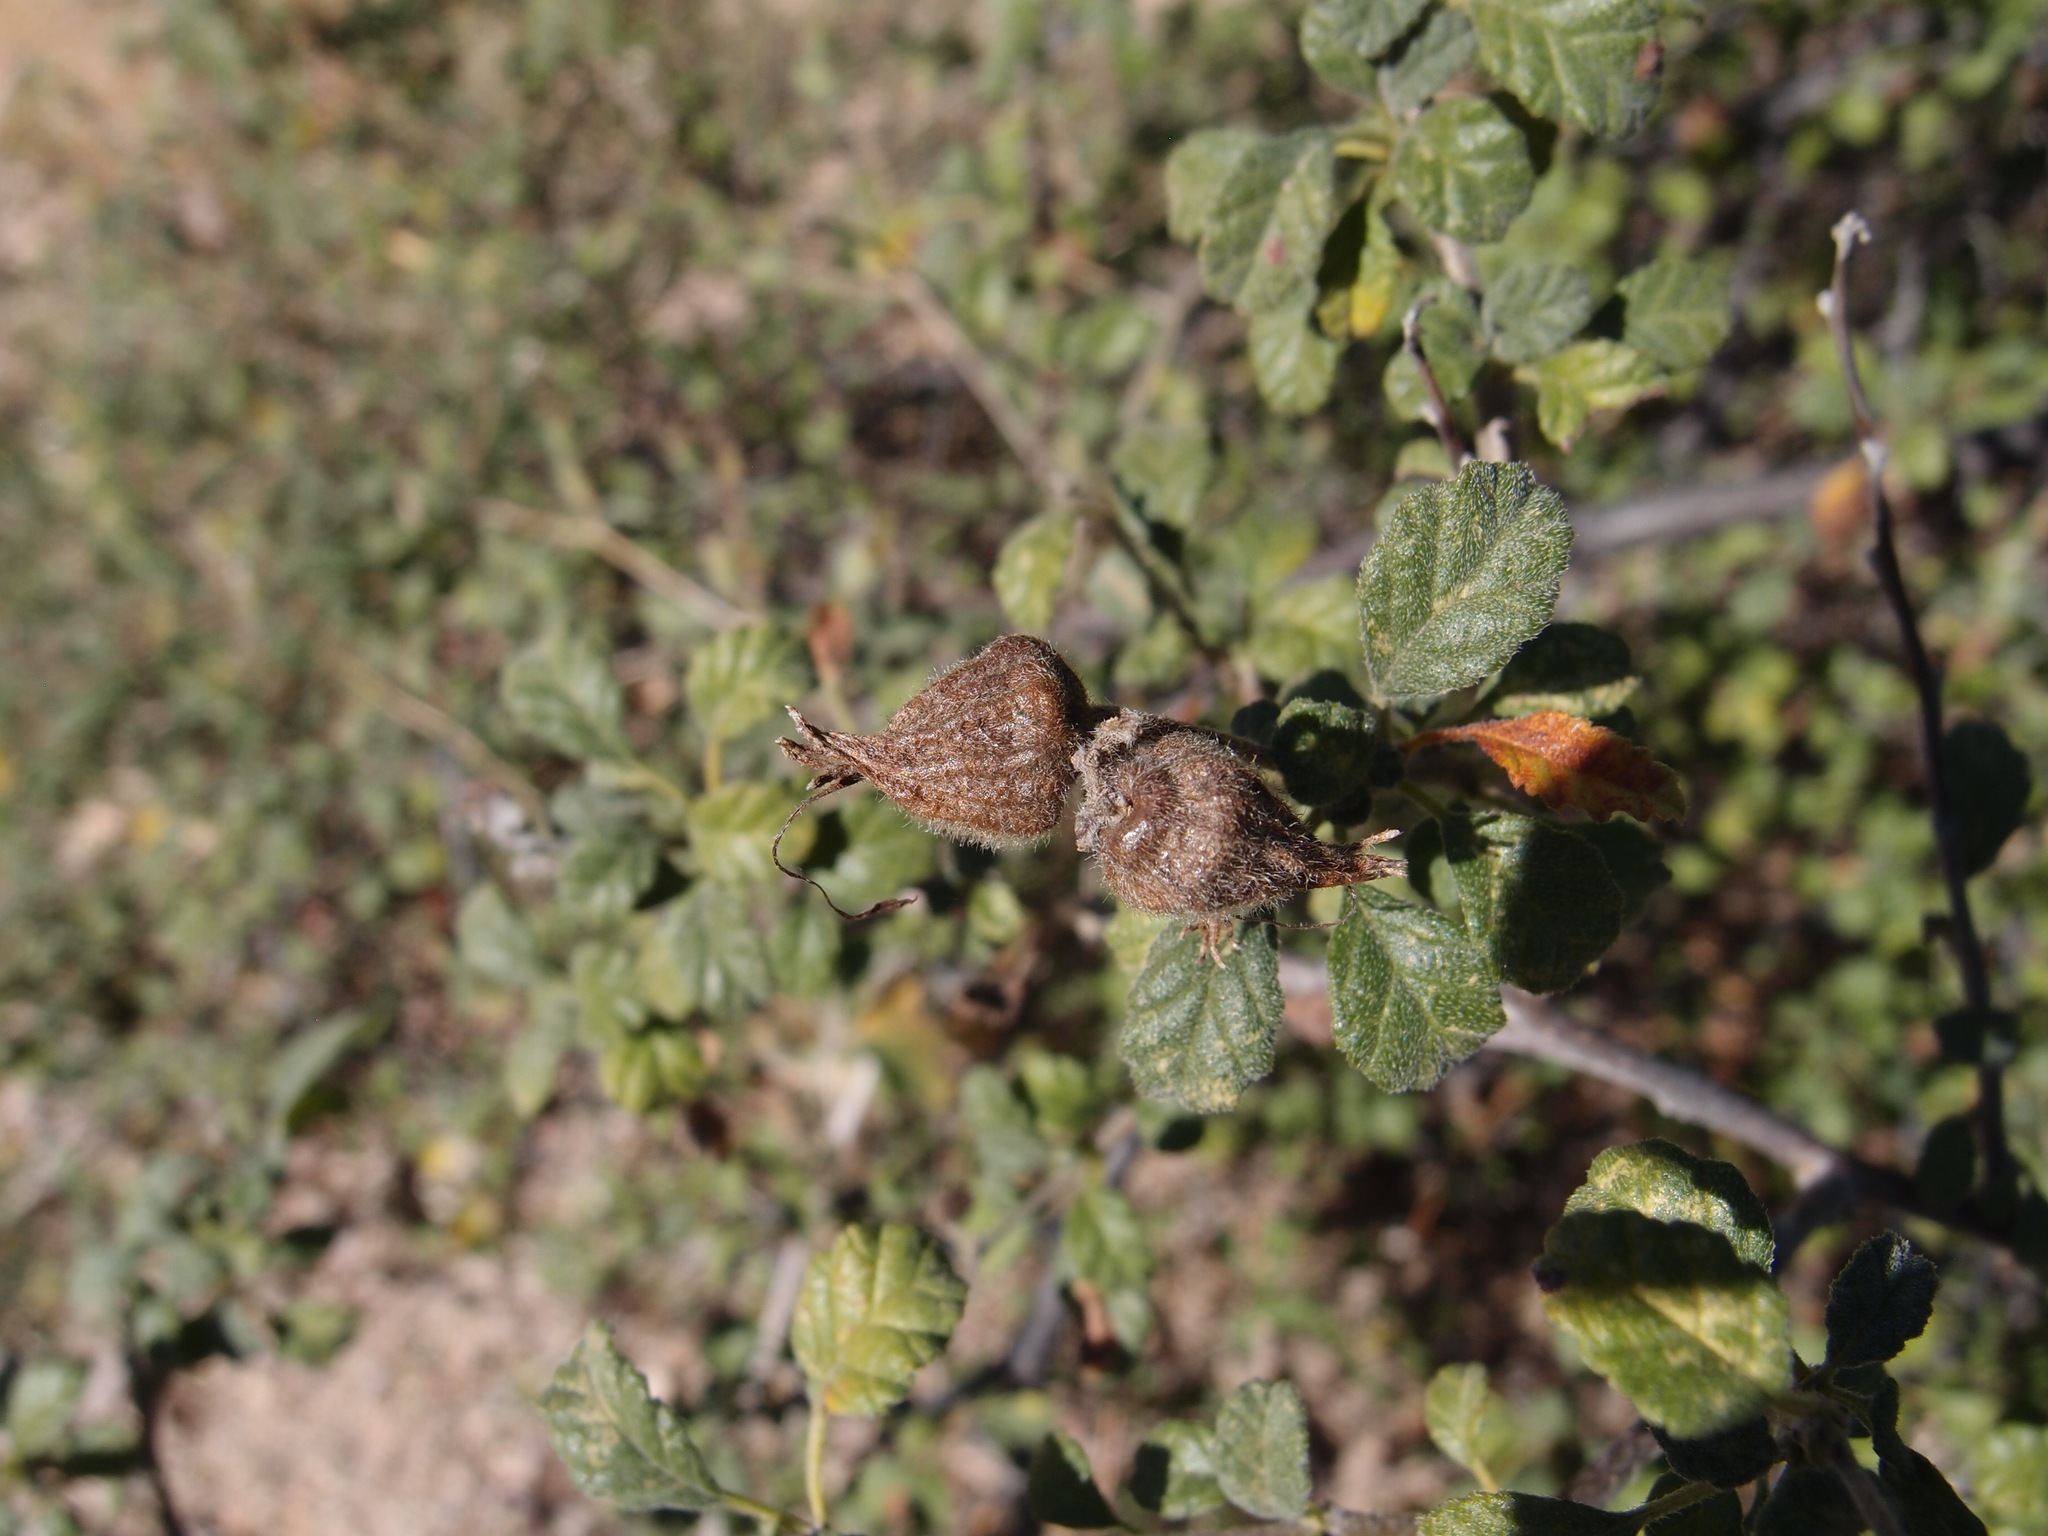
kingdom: Plantae
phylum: Tracheophyta
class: Magnoliopsida
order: Boraginales
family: Cordiaceae
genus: Cordia
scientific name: Cordia parvifolia
